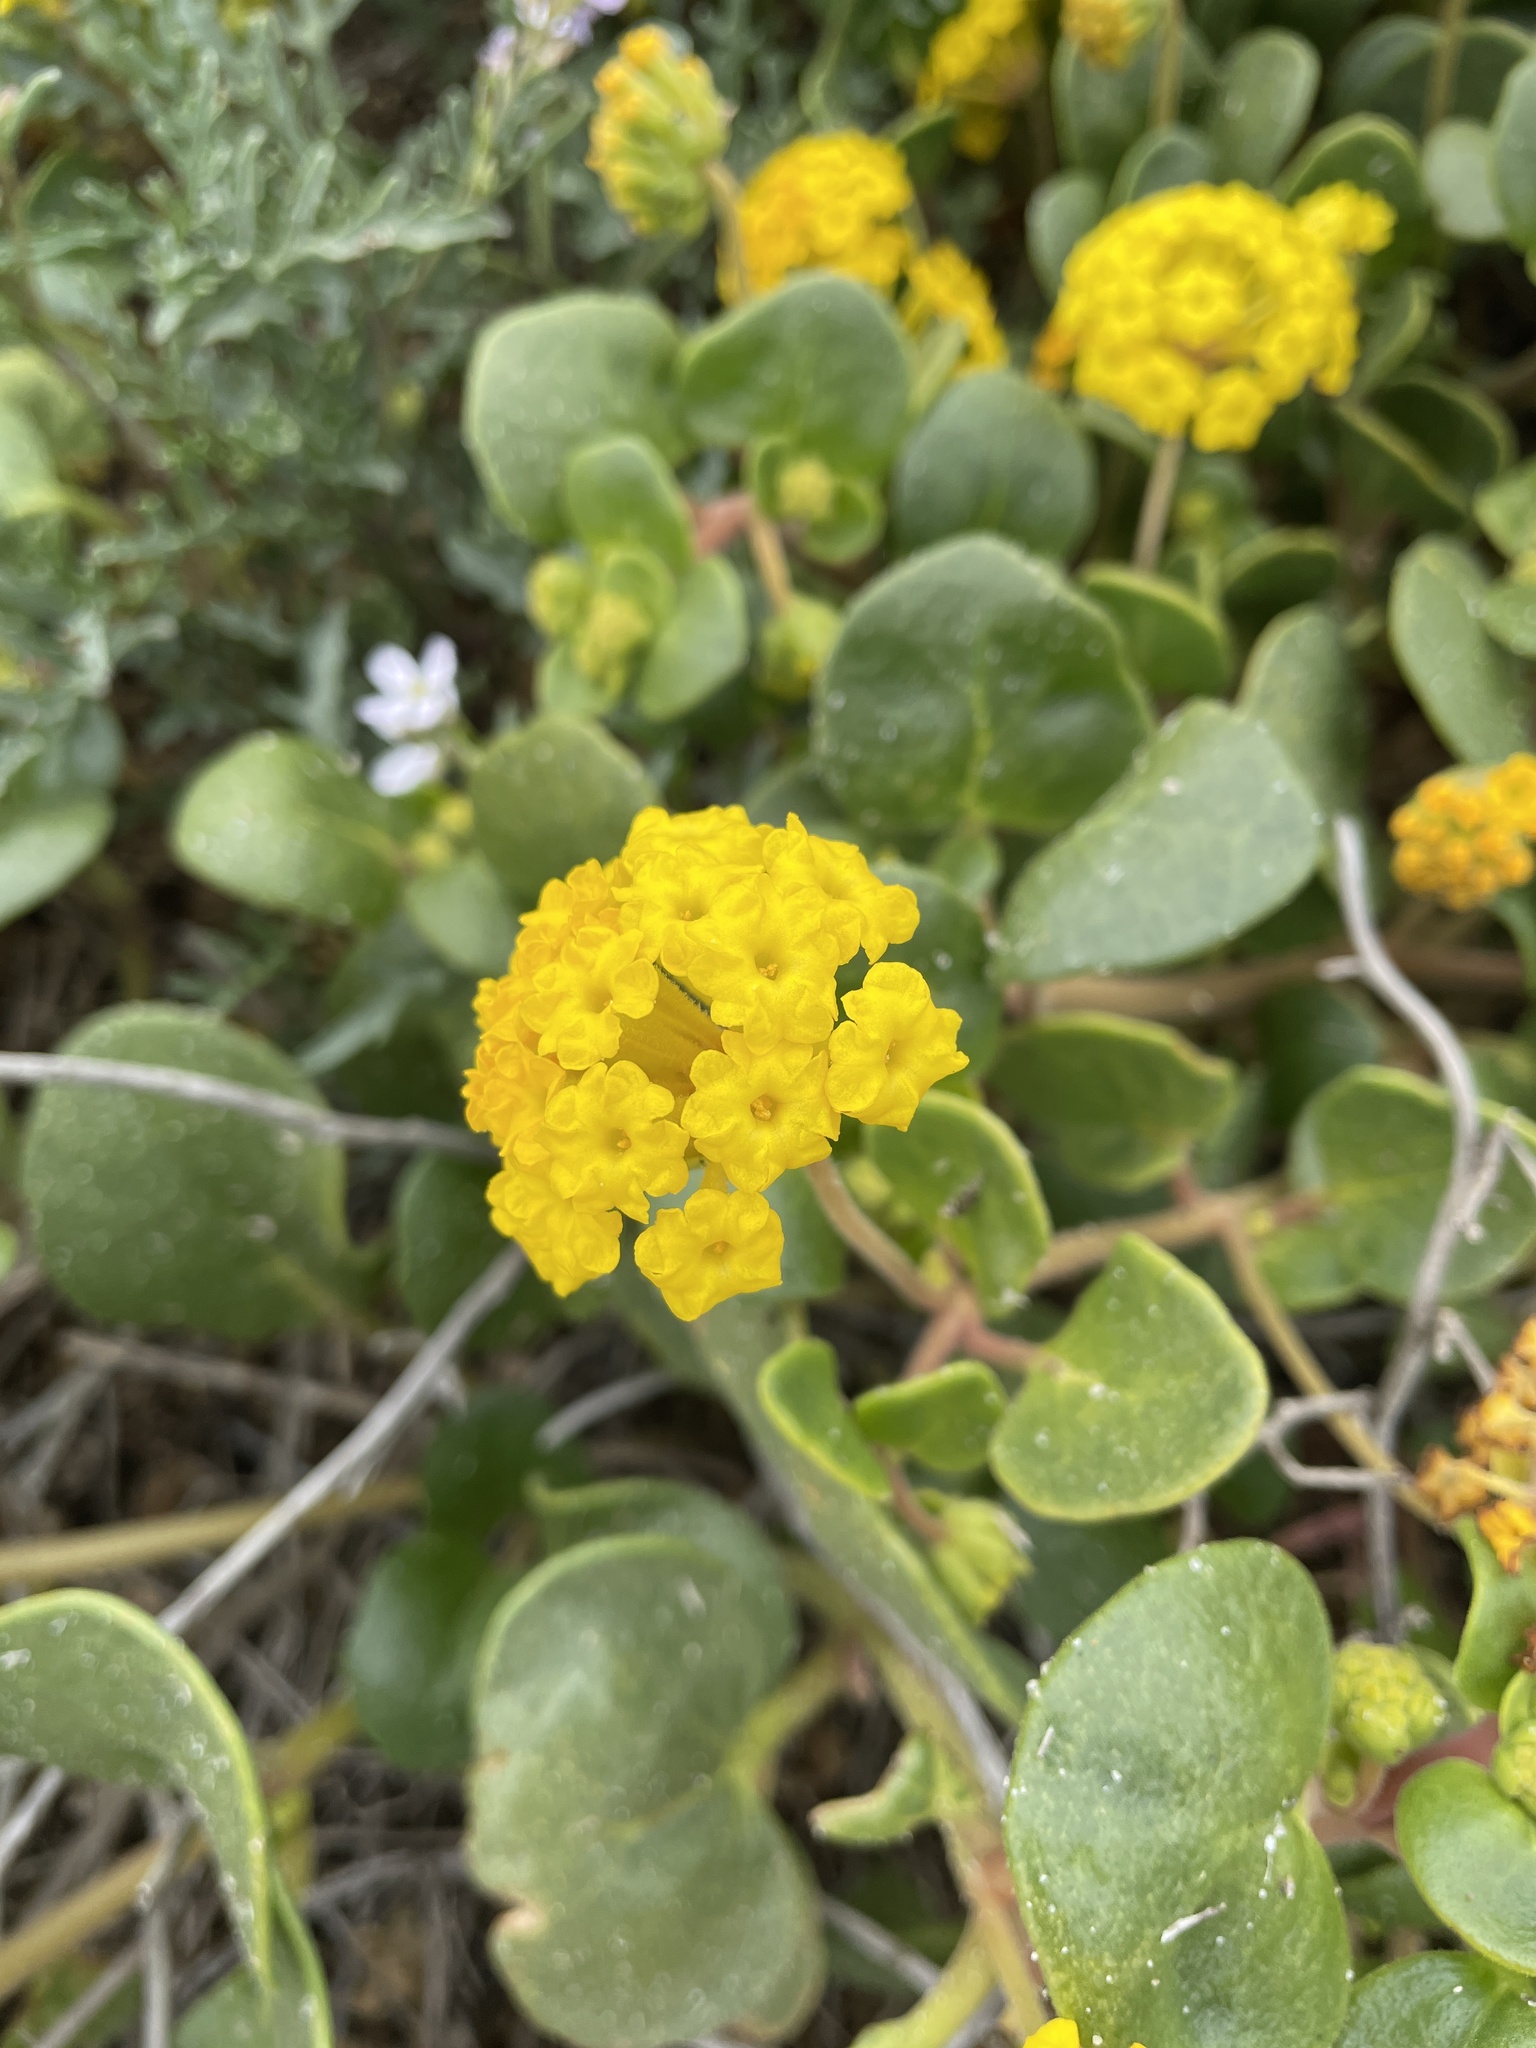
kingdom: Plantae
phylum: Tracheophyta
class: Magnoliopsida
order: Caryophyllales
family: Nyctaginaceae
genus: Abronia
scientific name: Abronia latifolia
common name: Yellow sand-verbena
